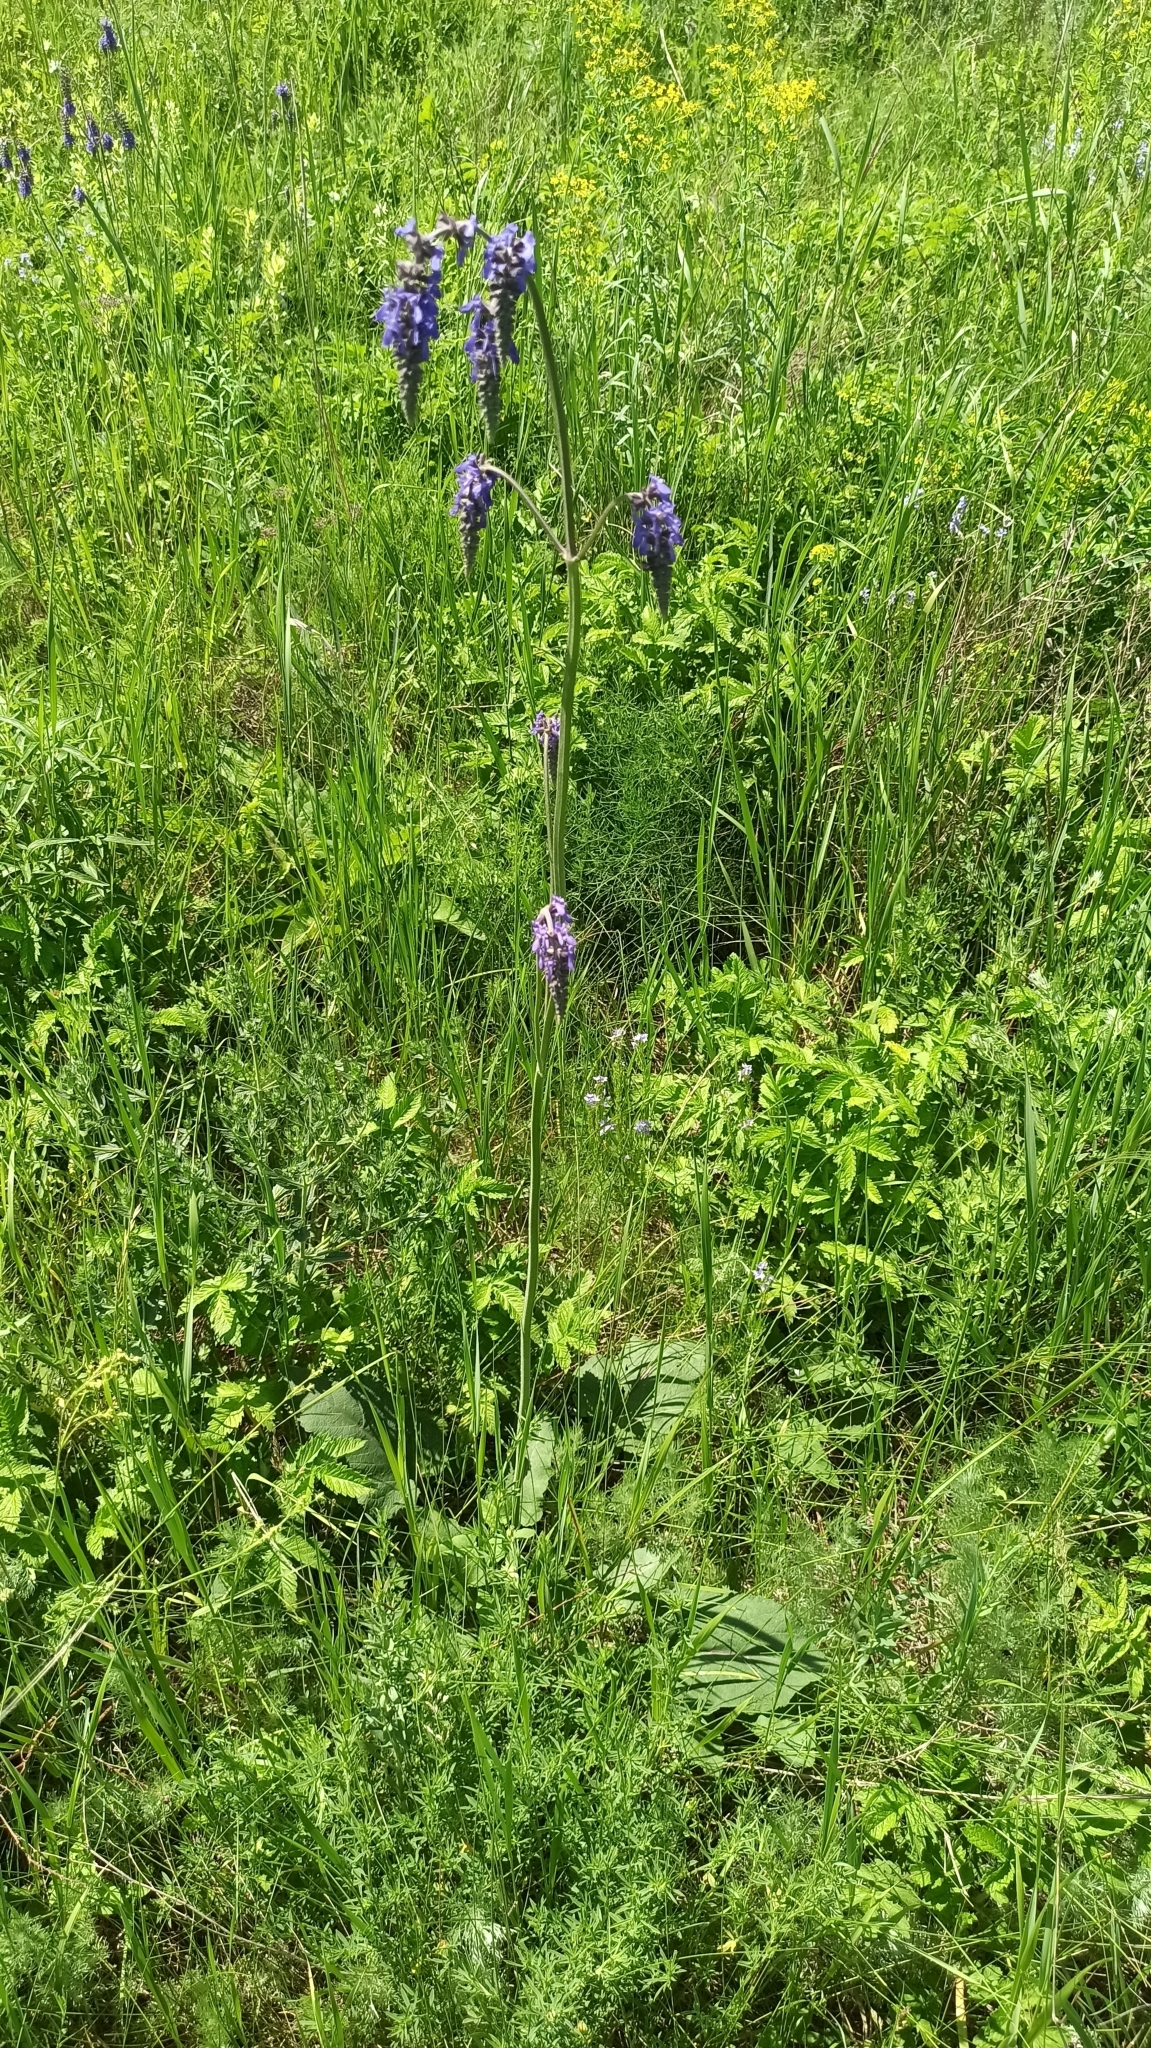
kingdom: Plantae
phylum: Tracheophyta
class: Magnoliopsida
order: Lamiales
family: Lamiaceae
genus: Salvia
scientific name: Salvia nutans
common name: Nodding sage
